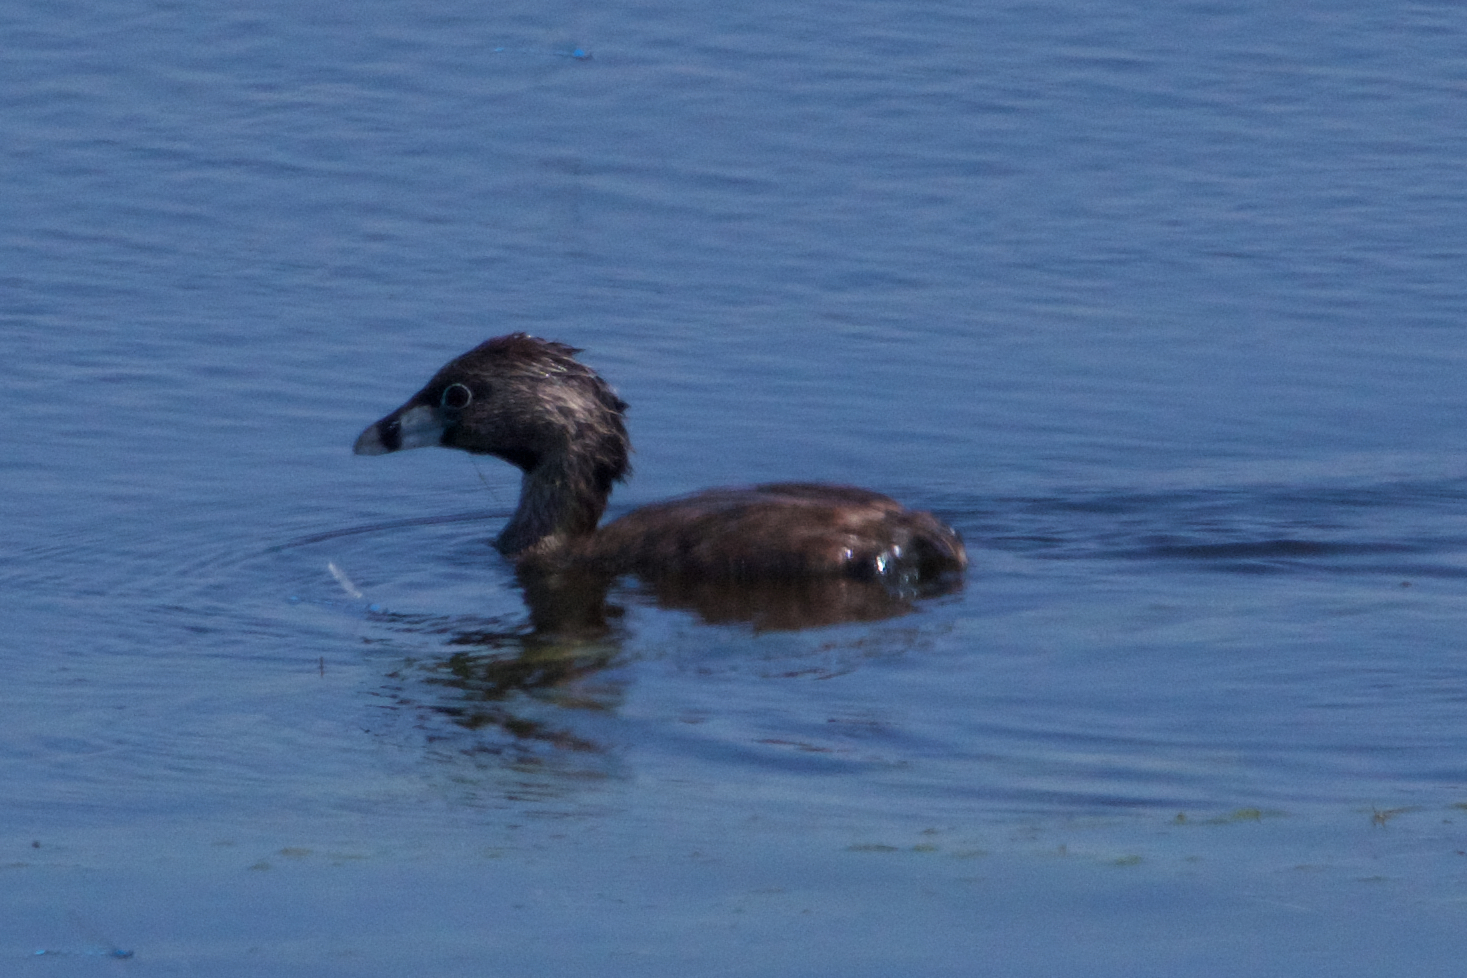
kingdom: Animalia
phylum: Chordata
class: Aves
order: Podicipediformes
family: Podicipedidae
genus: Podilymbus
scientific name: Podilymbus podiceps
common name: Pied-billed grebe
